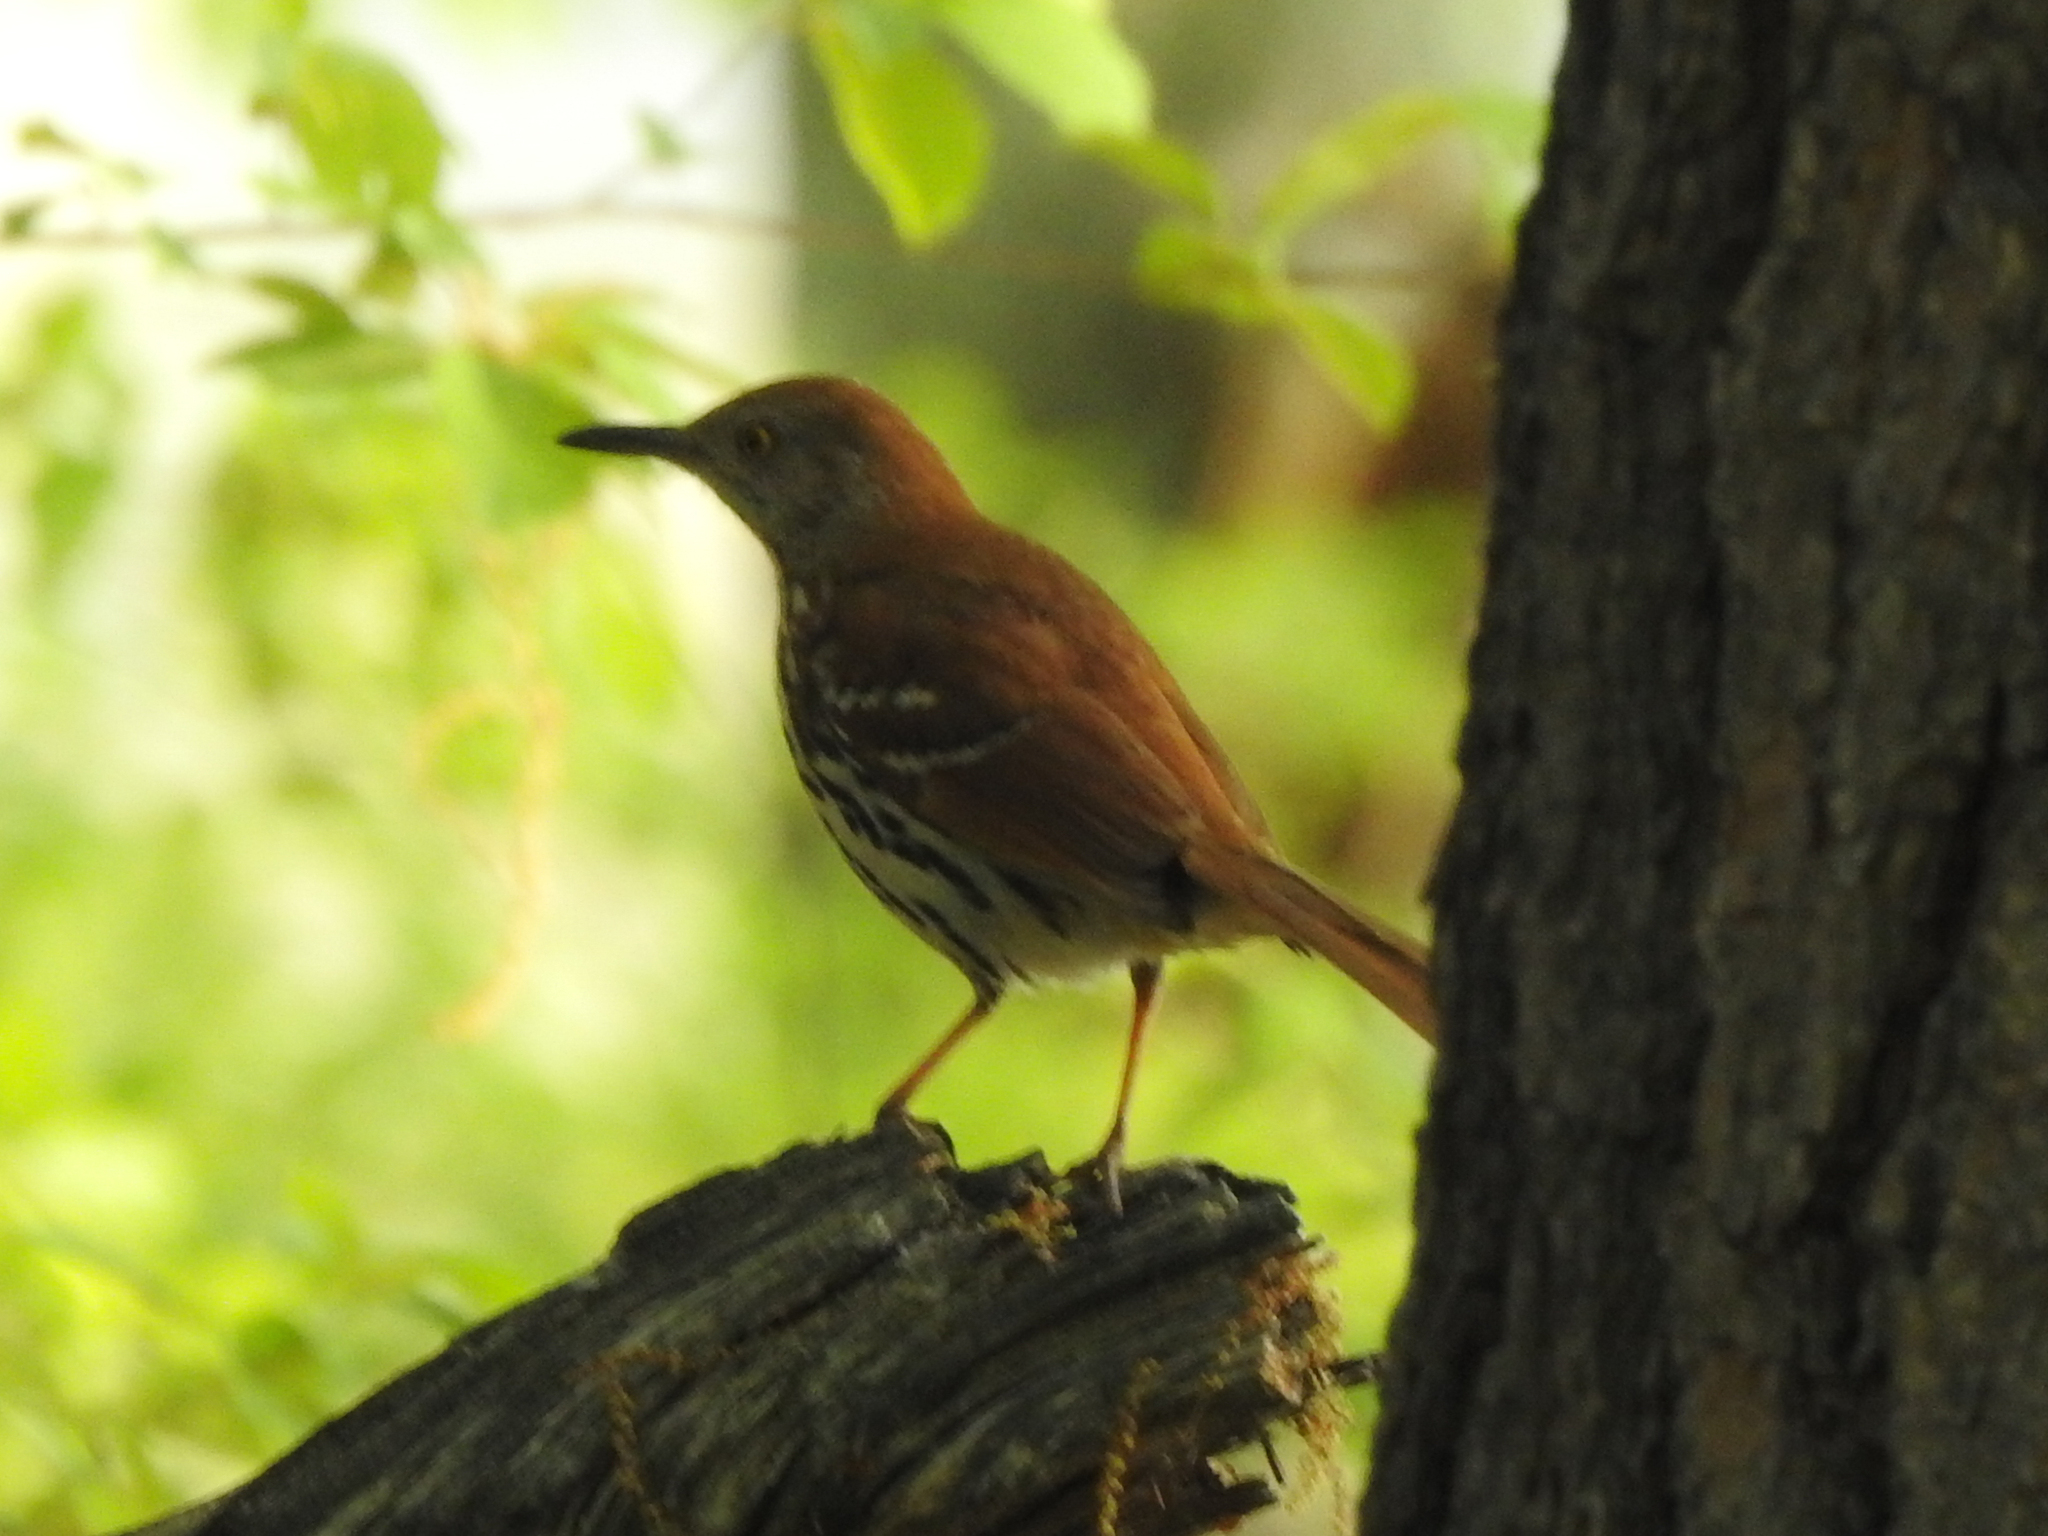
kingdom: Animalia
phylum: Chordata
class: Aves
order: Passeriformes
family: Mimidae
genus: Toxostoma
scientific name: Toxostoma rufum
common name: Brown thrasher
